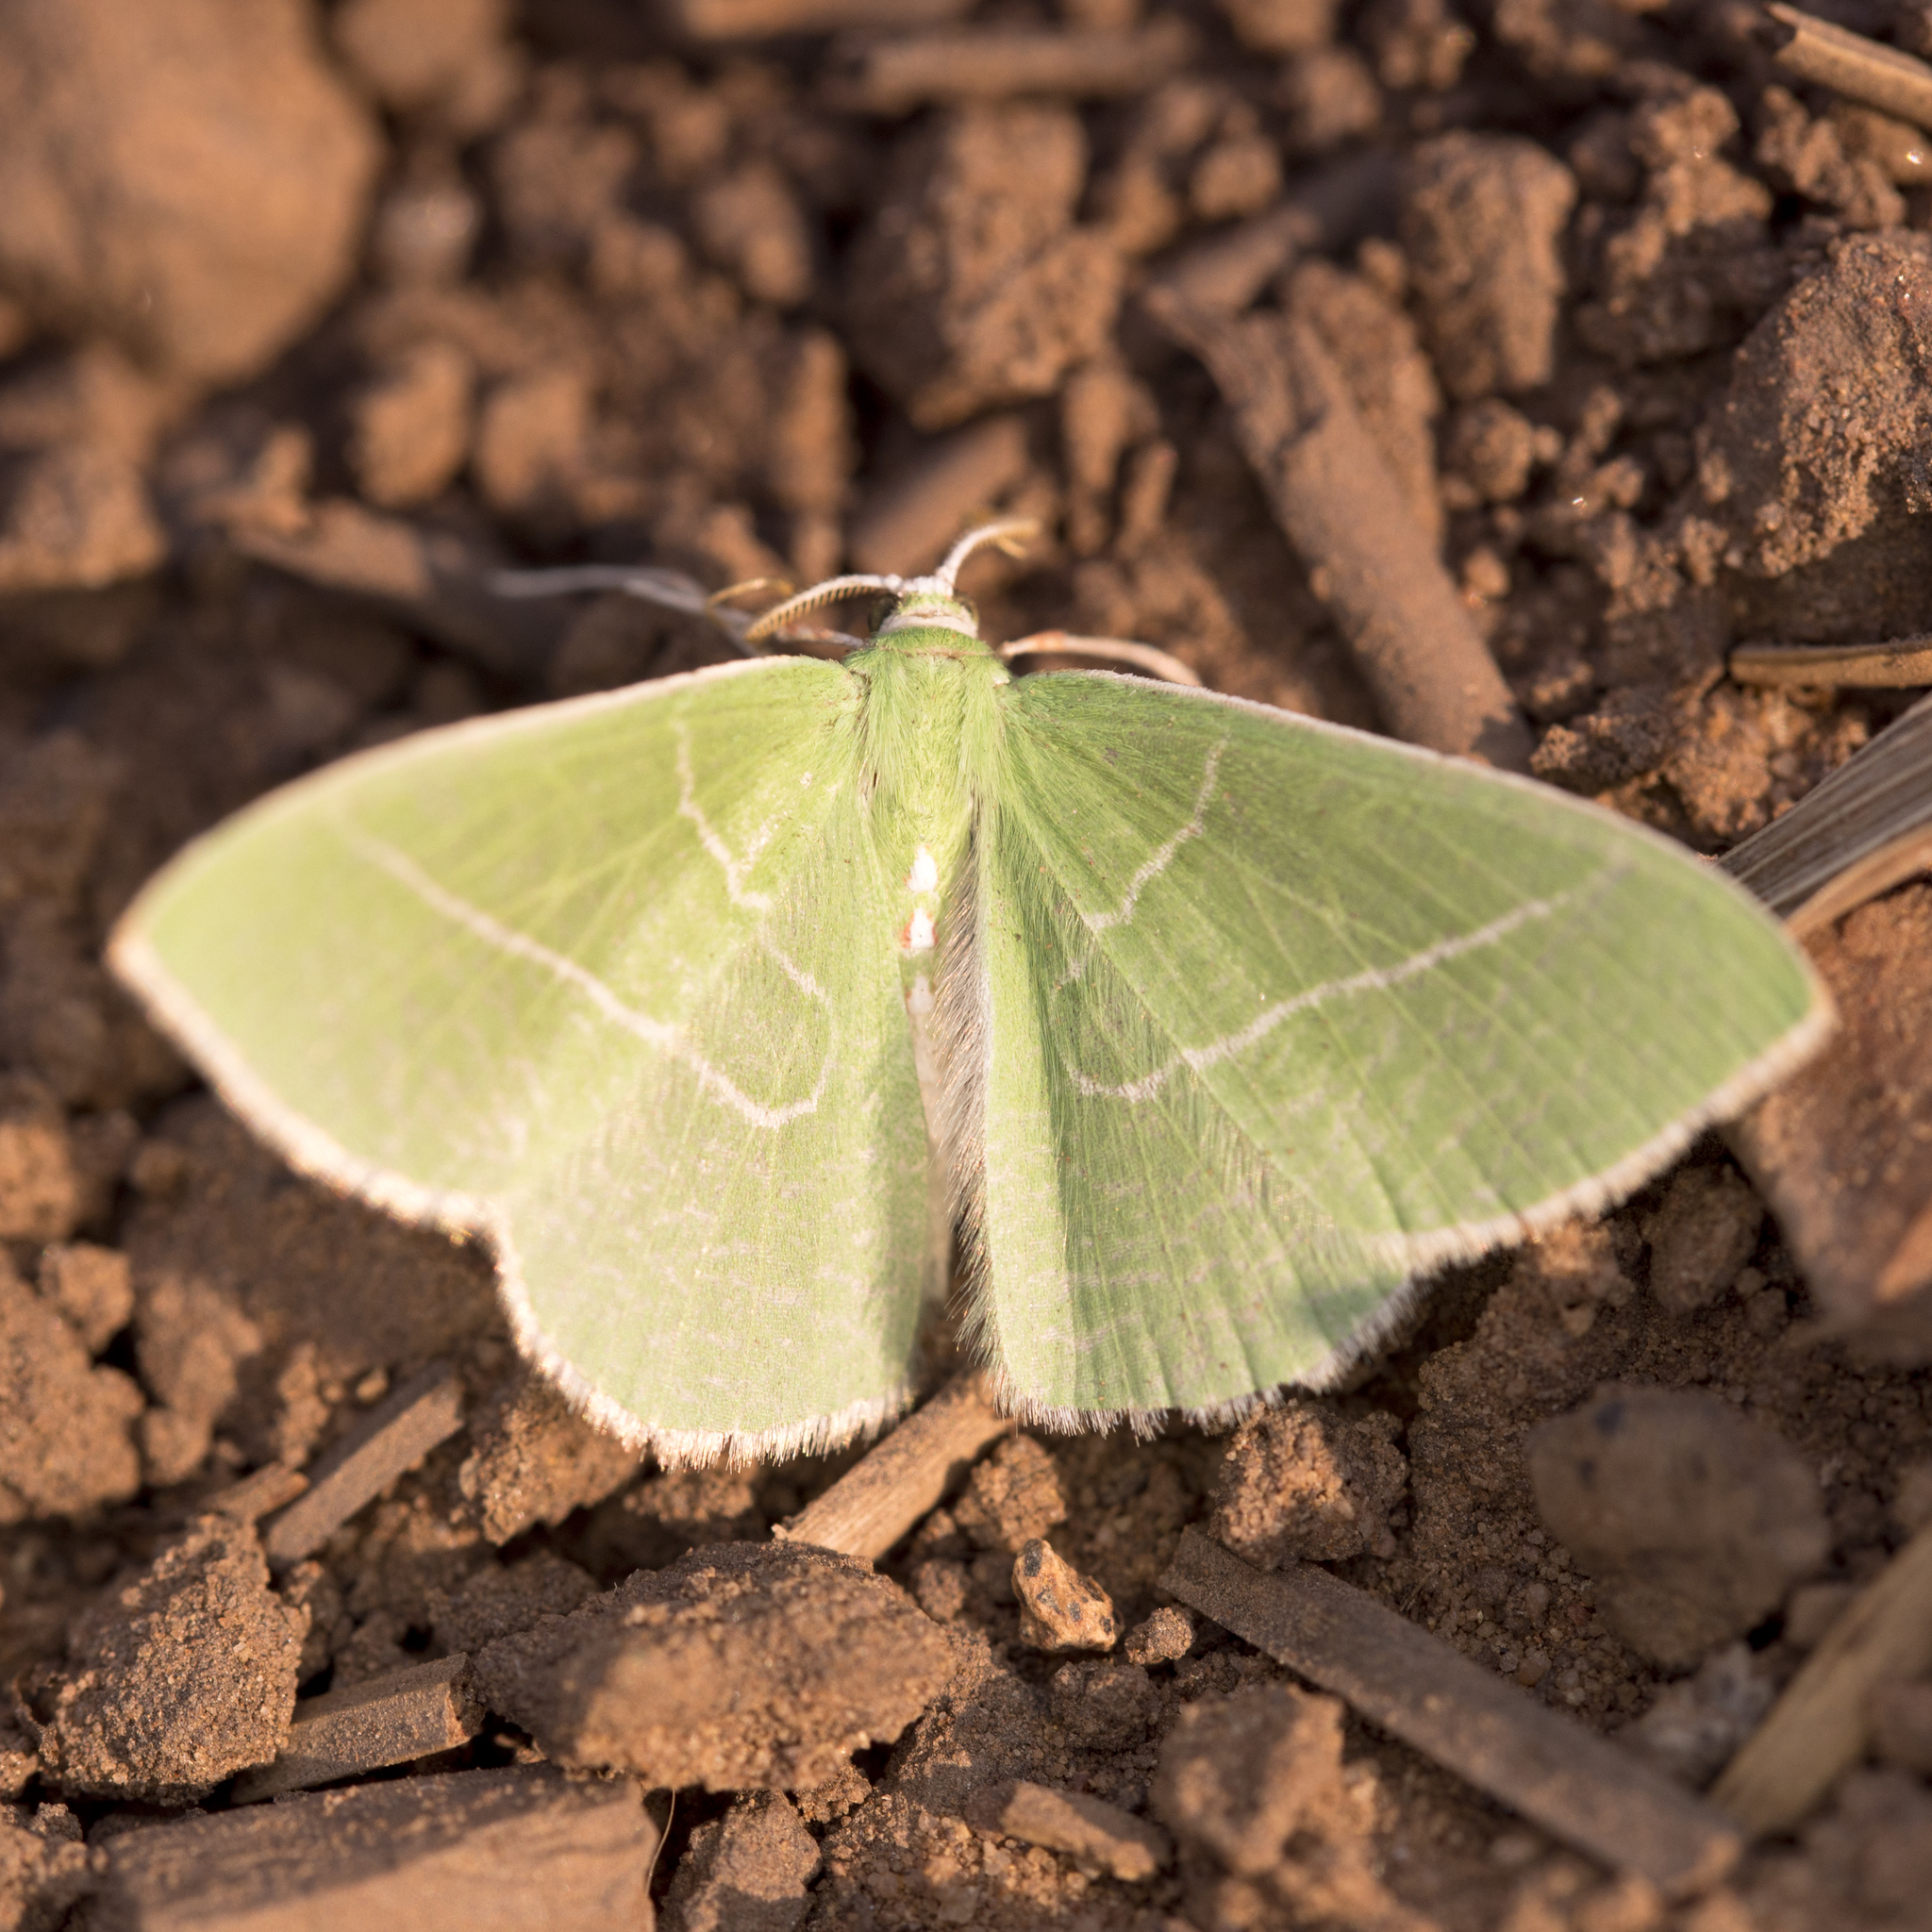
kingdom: Animalia
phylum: Arthropoda
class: Insecta
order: Lepidoptera
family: Geometridae
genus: Nemoria
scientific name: Nemoria unitaria
